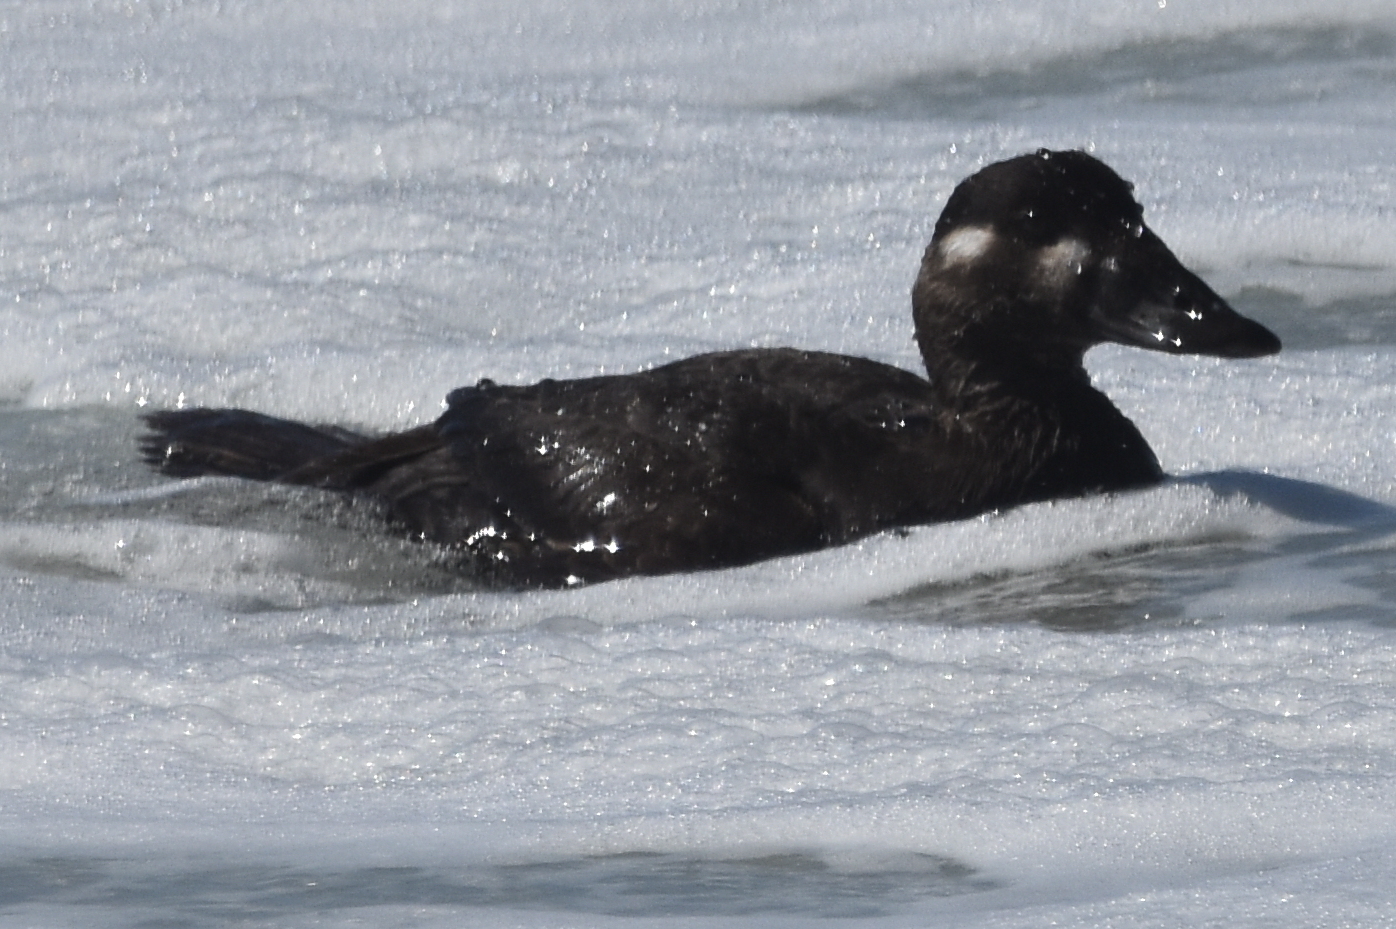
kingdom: Animalia
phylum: Chordata
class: Aves
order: Anseriformes
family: Anatidae
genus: Melanitta
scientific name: Melanitta perspicillata
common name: Surf scoter
